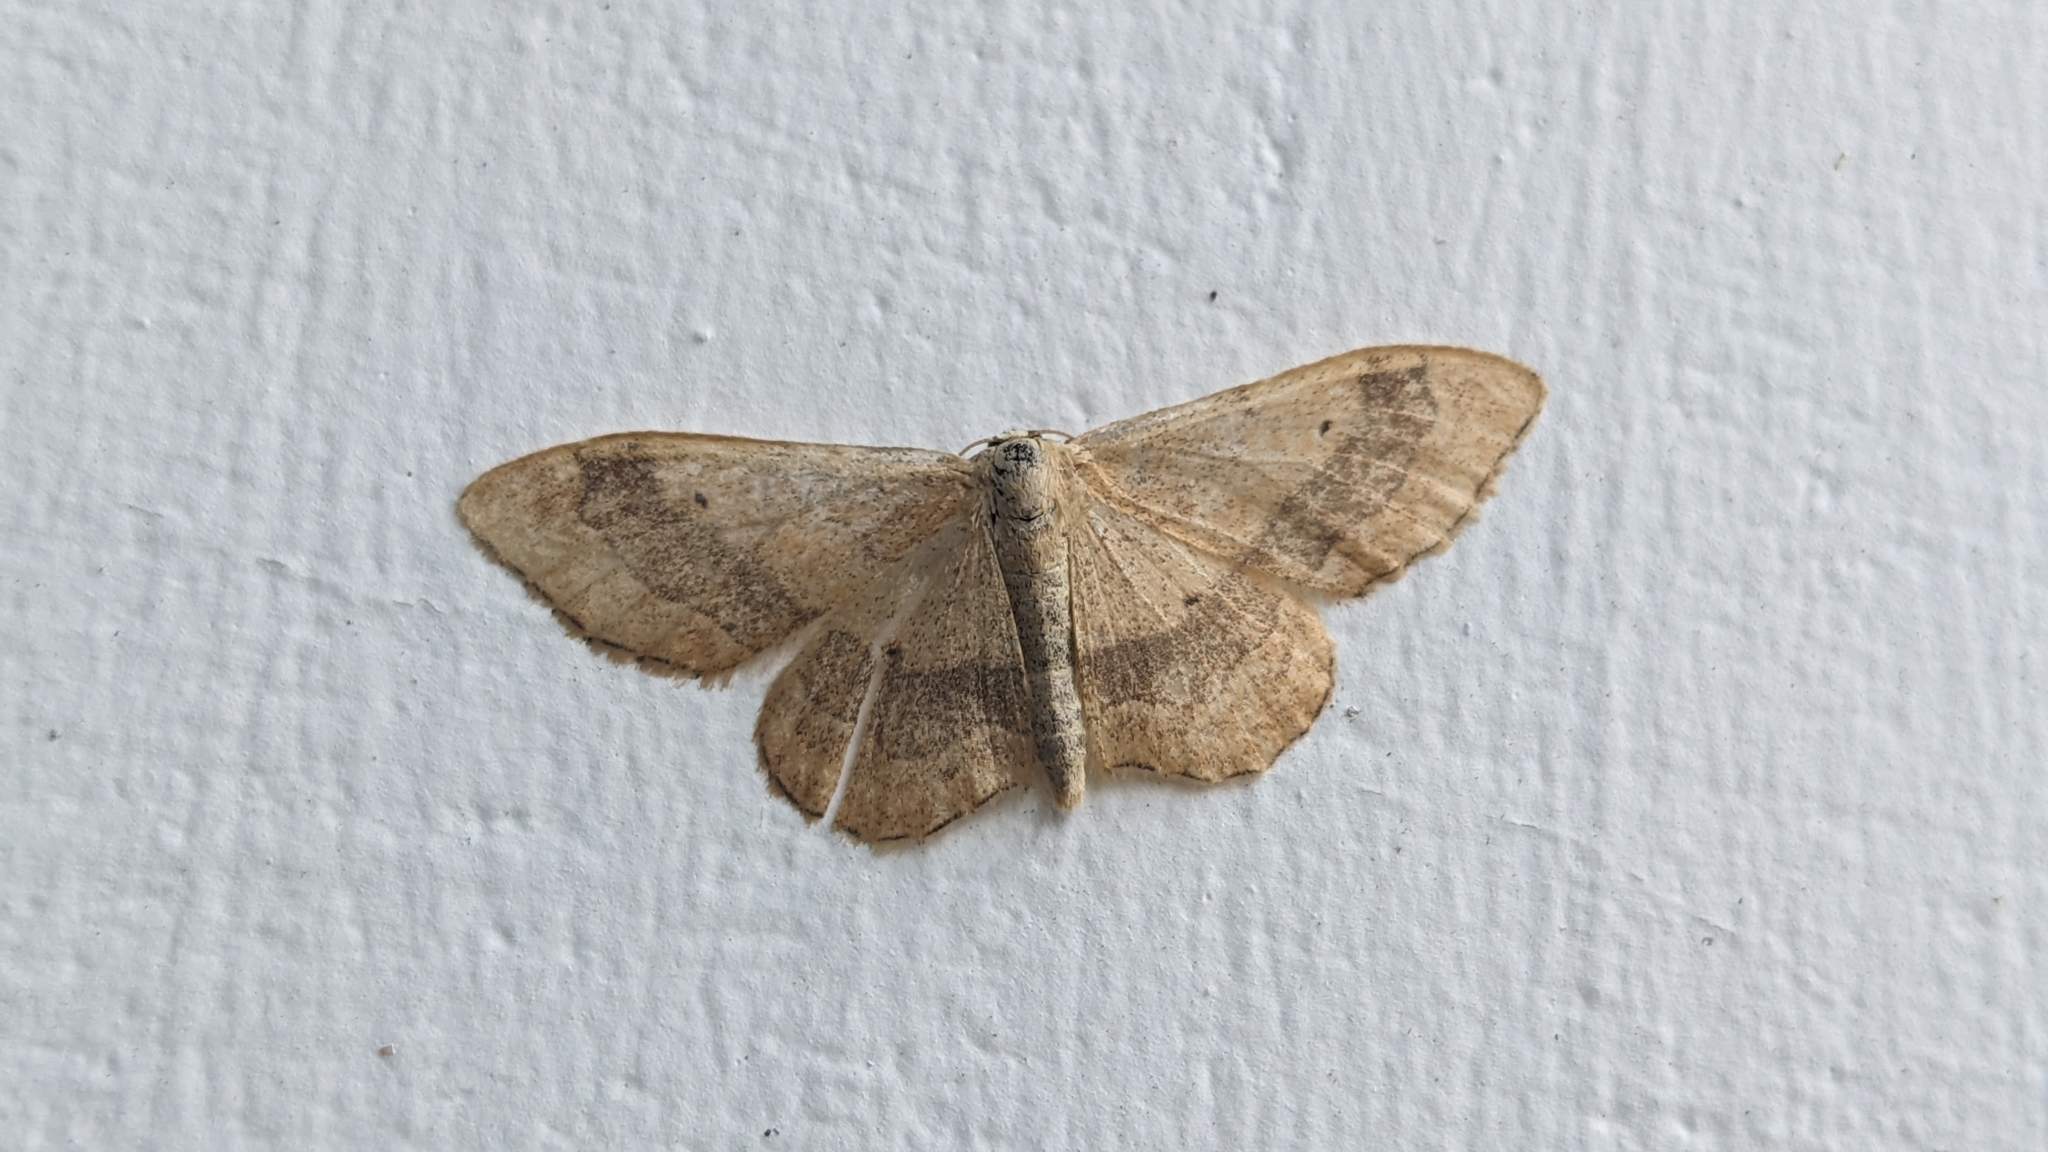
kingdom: Animalia
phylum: Arthropoda
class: Insecta
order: Lepidoptera
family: Geometridae
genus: Idaea
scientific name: Idaea aversata
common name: Riband wave
